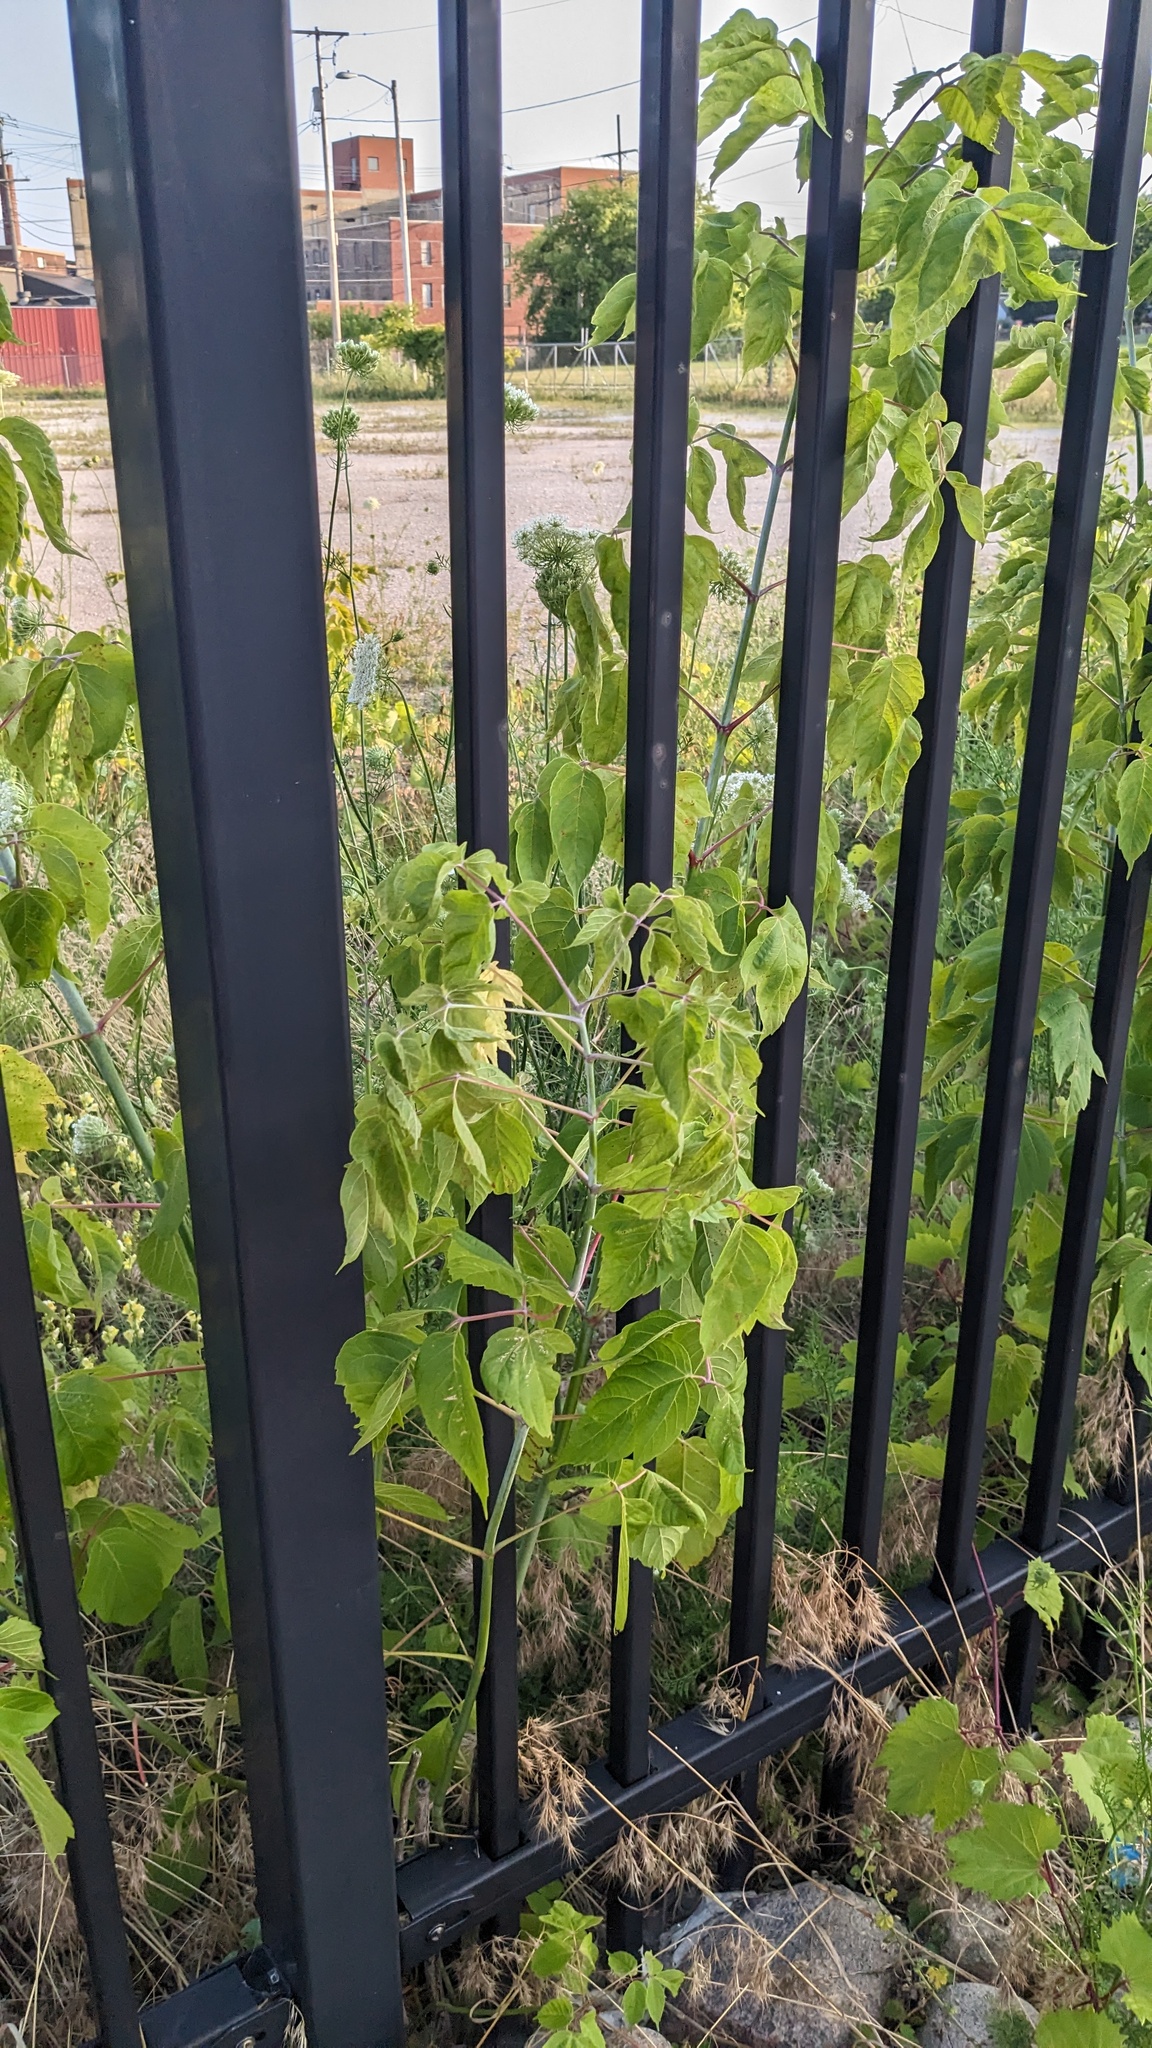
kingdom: Plantae
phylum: Tracheophyta
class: Magnoliopsida
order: Sapindales
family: Sapindaceae
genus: Acer
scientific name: Acer negundo
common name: Ashleaf maple
